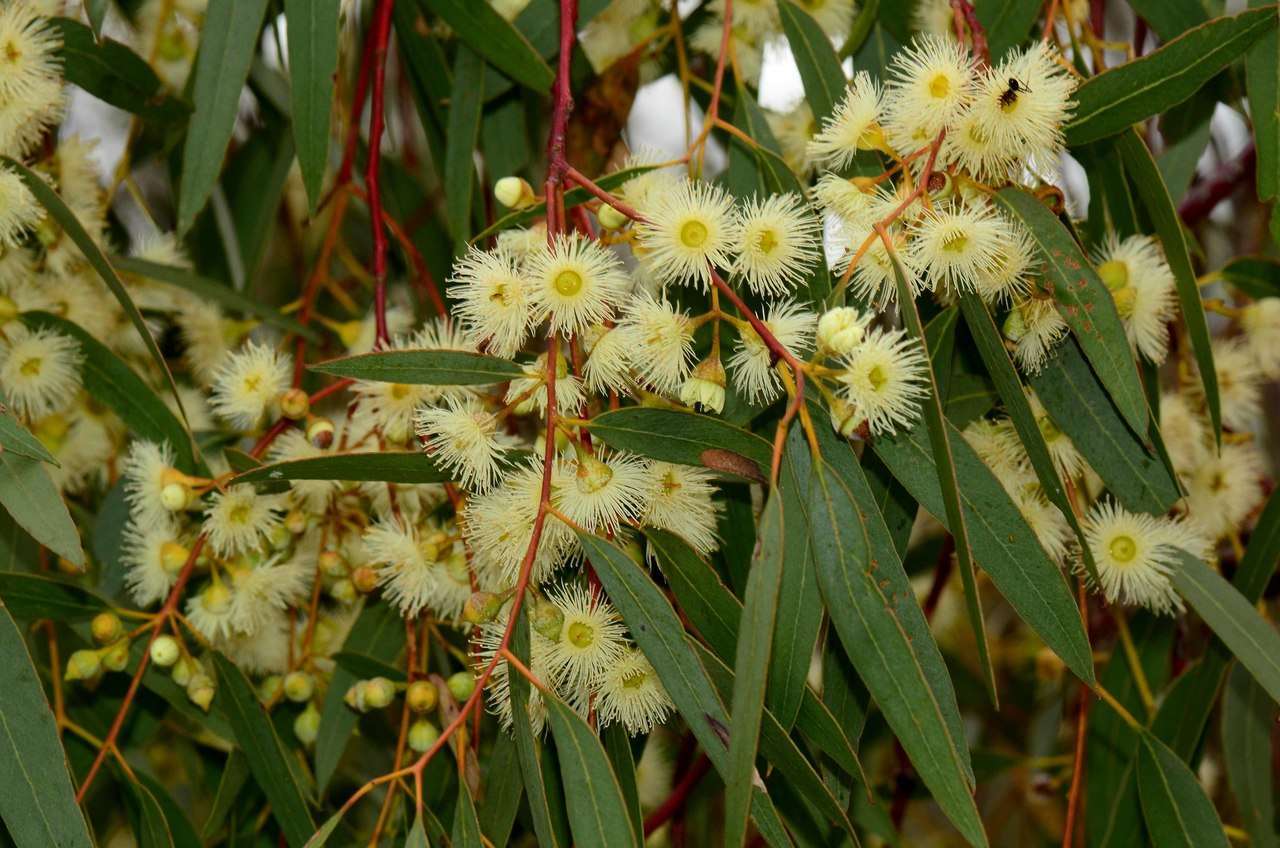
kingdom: Plantae
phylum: Tracheophyta
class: Magnoliopsida
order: Myrtales
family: Myrtaceae
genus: Eucalyptus
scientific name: Eucalyptus leucoxylon
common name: Blue gum
